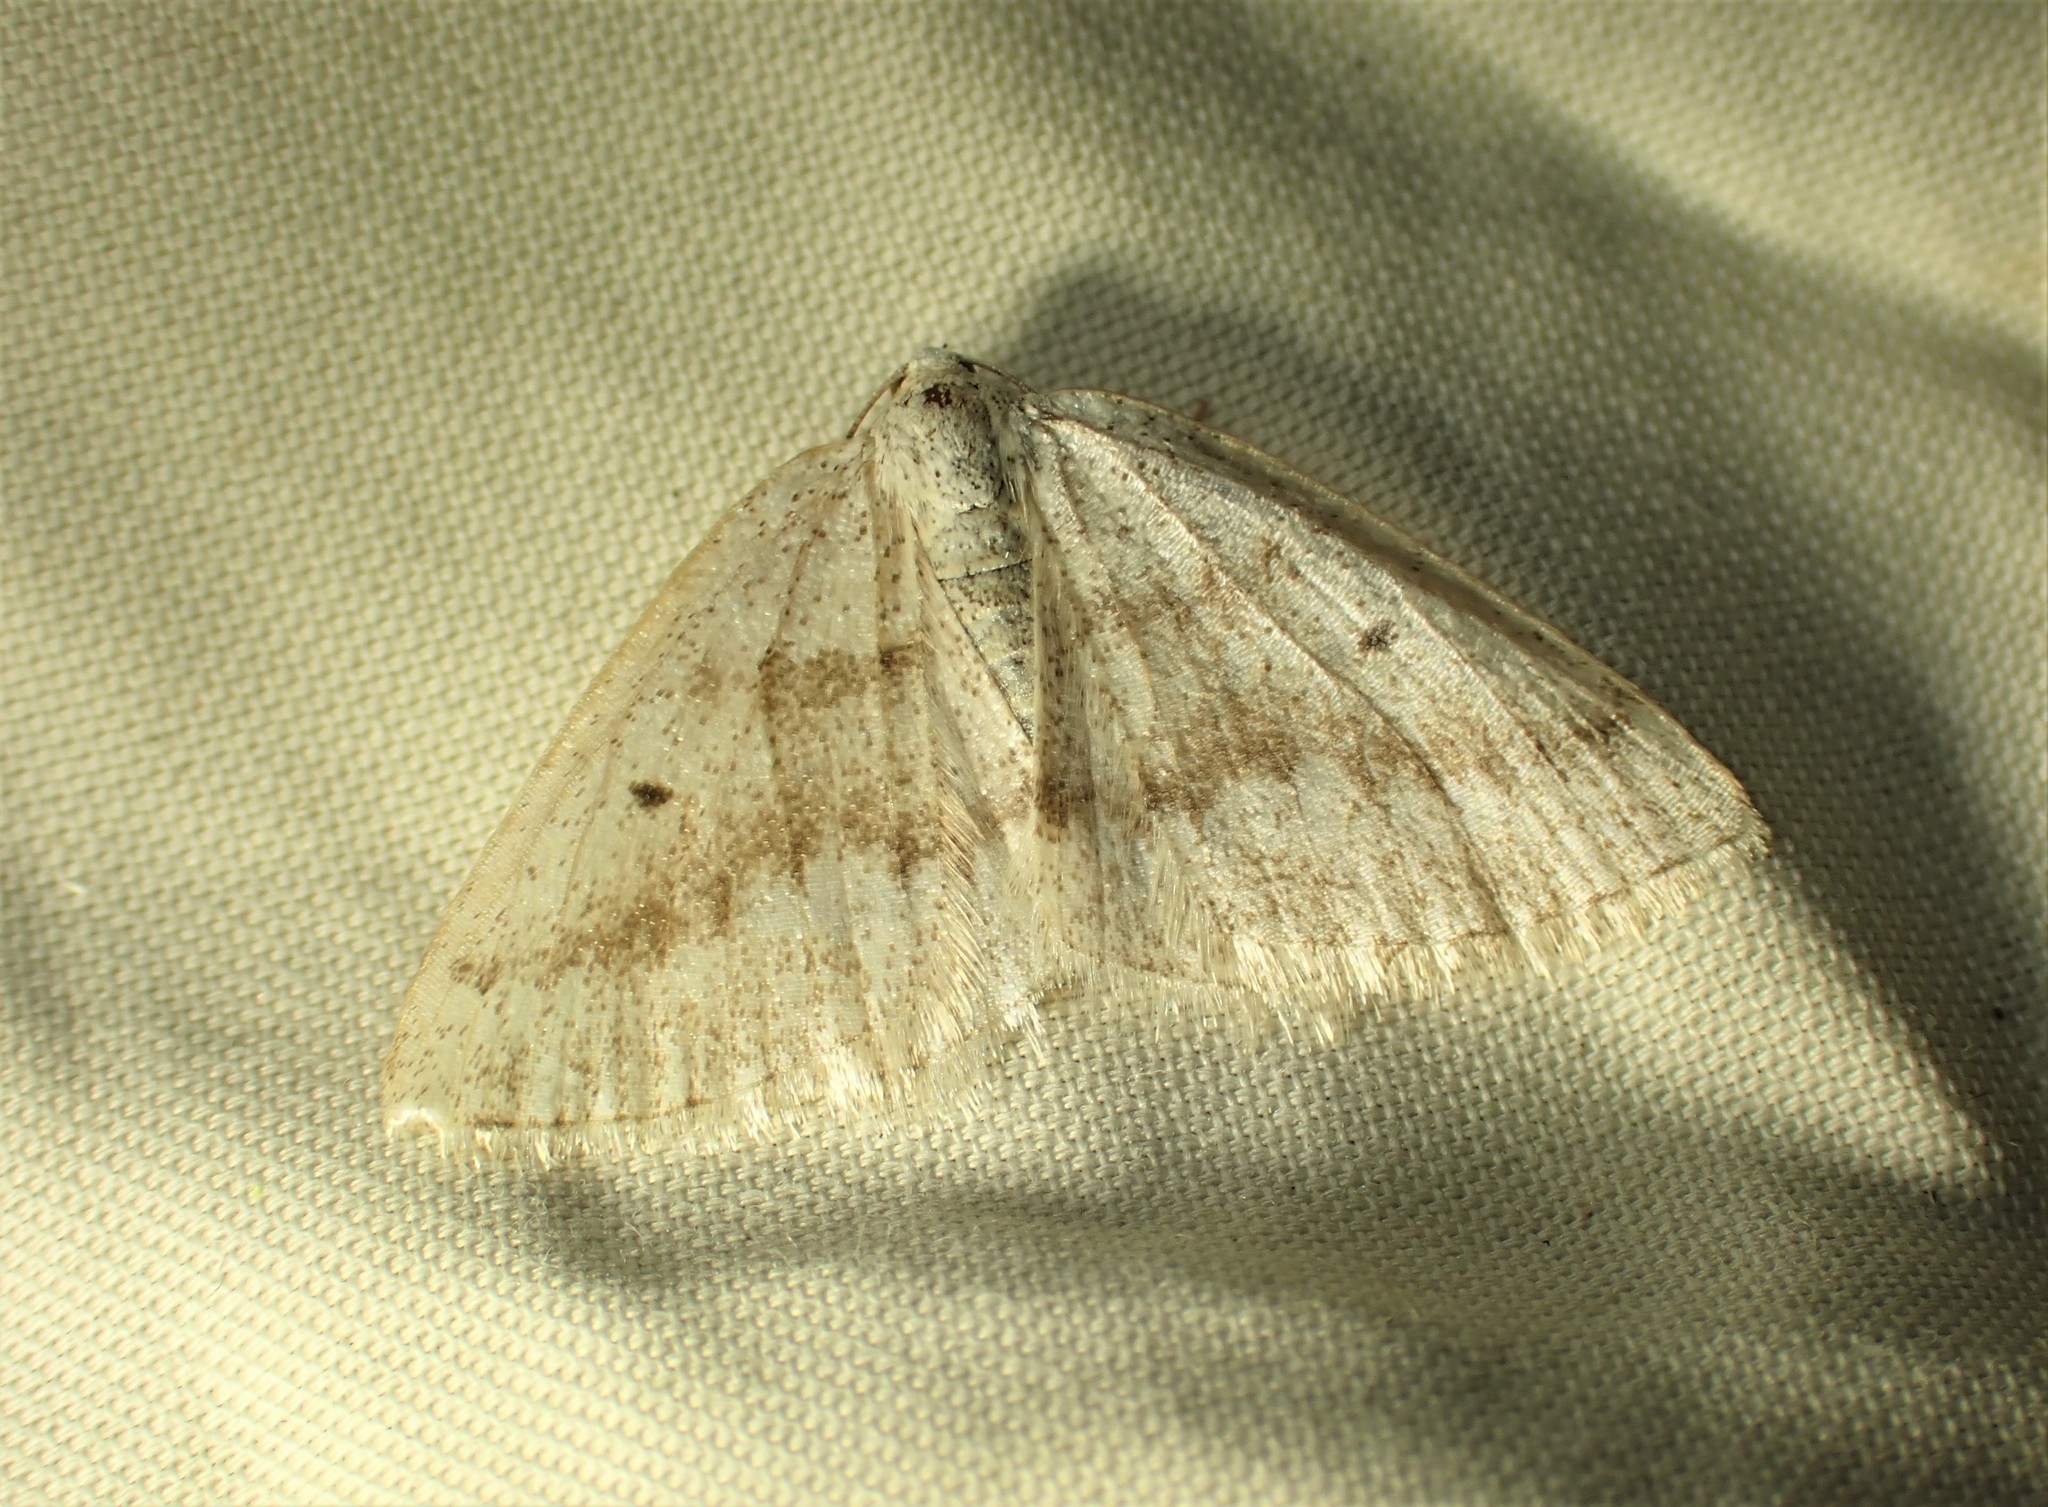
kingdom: Animalia
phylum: Arthropoda
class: Insecta
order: Lepidoptera
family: Geometridae
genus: Lomographa
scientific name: Lomographa glomeraria
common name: Gray spring moth
